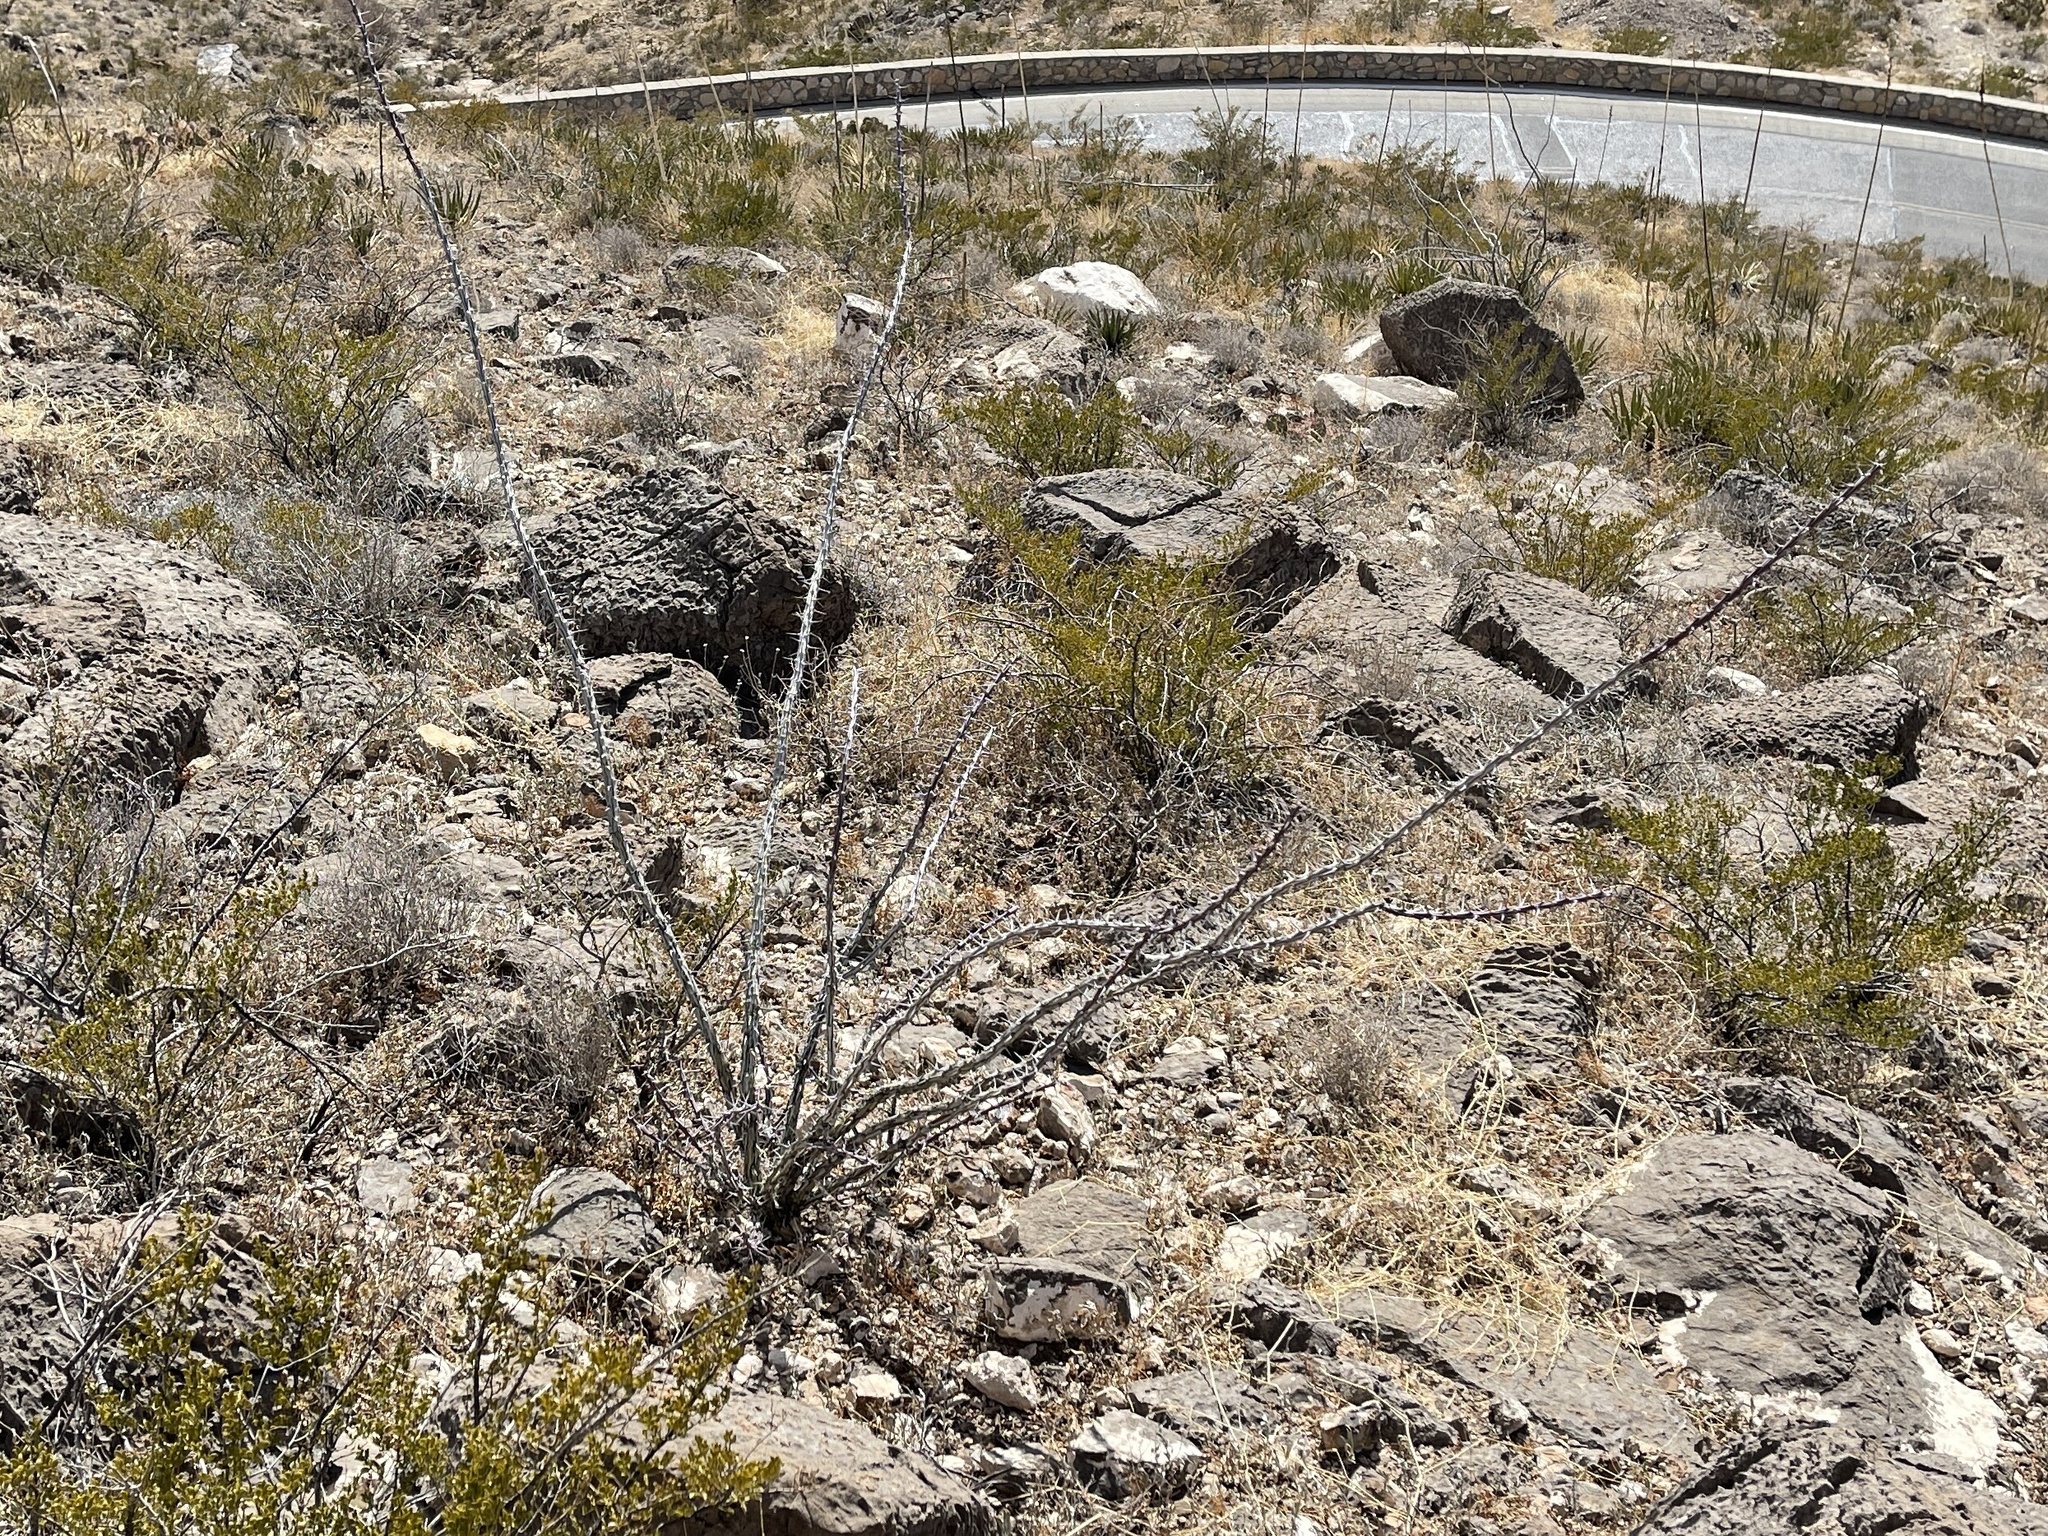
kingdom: Plantae
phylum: Tracheophyta
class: Magnoliopsida
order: Ericales
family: Fouquieriaceae
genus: Fouquieria
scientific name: Fouquieria splendens
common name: Vine-cactus
